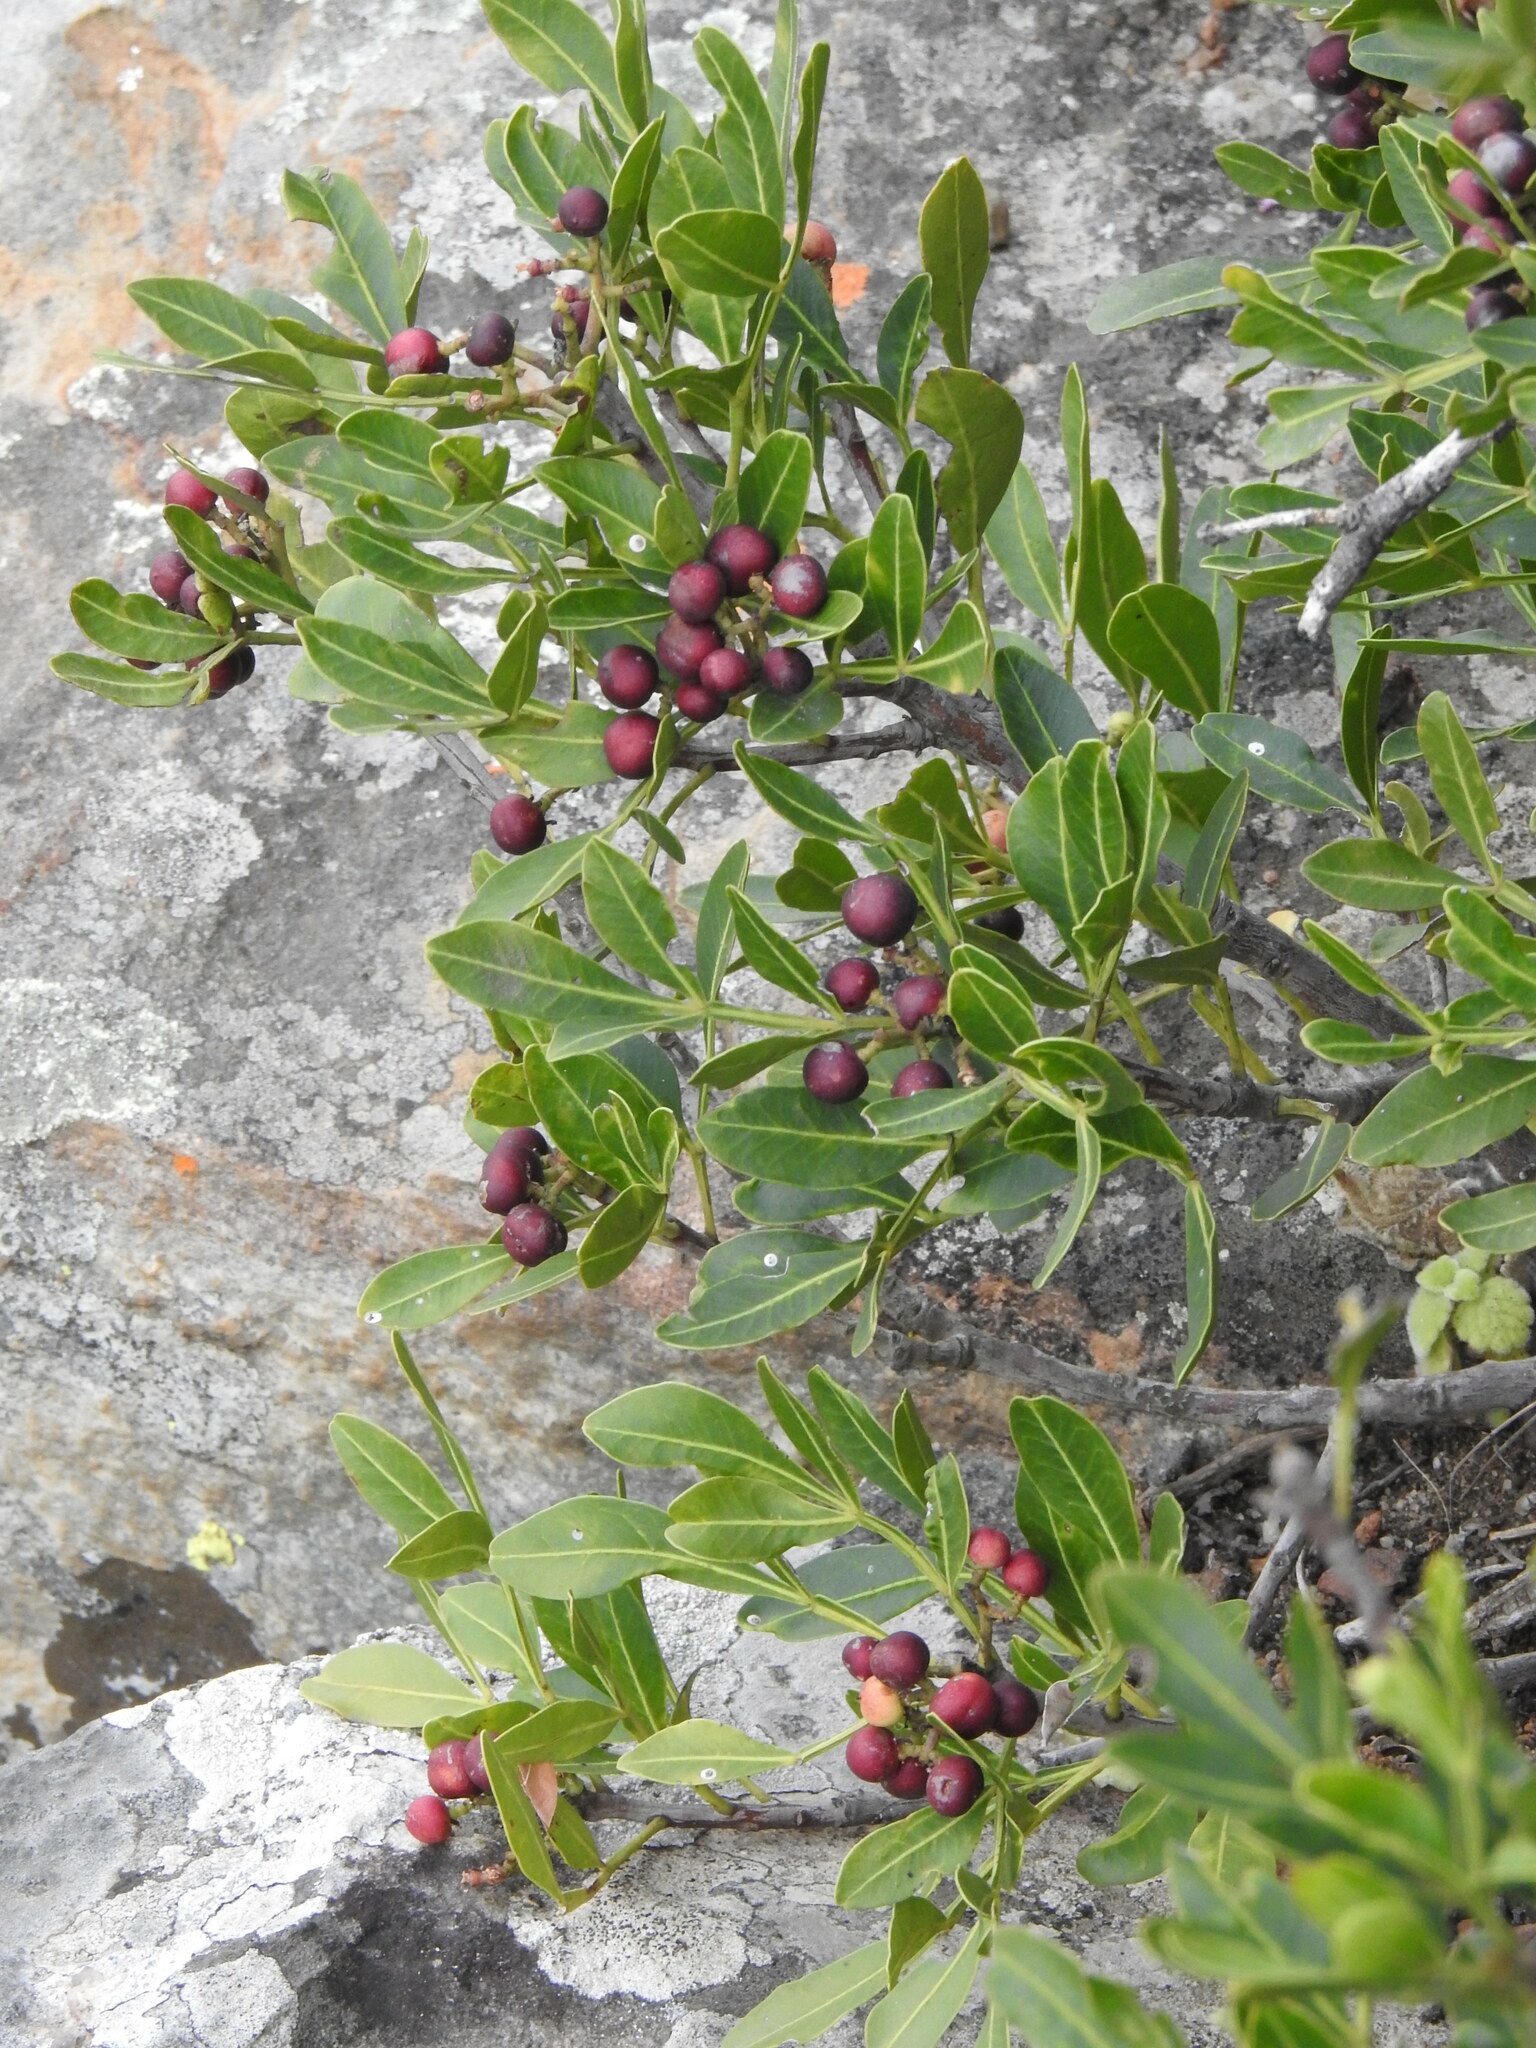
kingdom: Plantae
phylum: Tracheophyta
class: Magnoliopsida
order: Lamiales
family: Oleaceae
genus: Schrebera
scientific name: Schrebera alata
